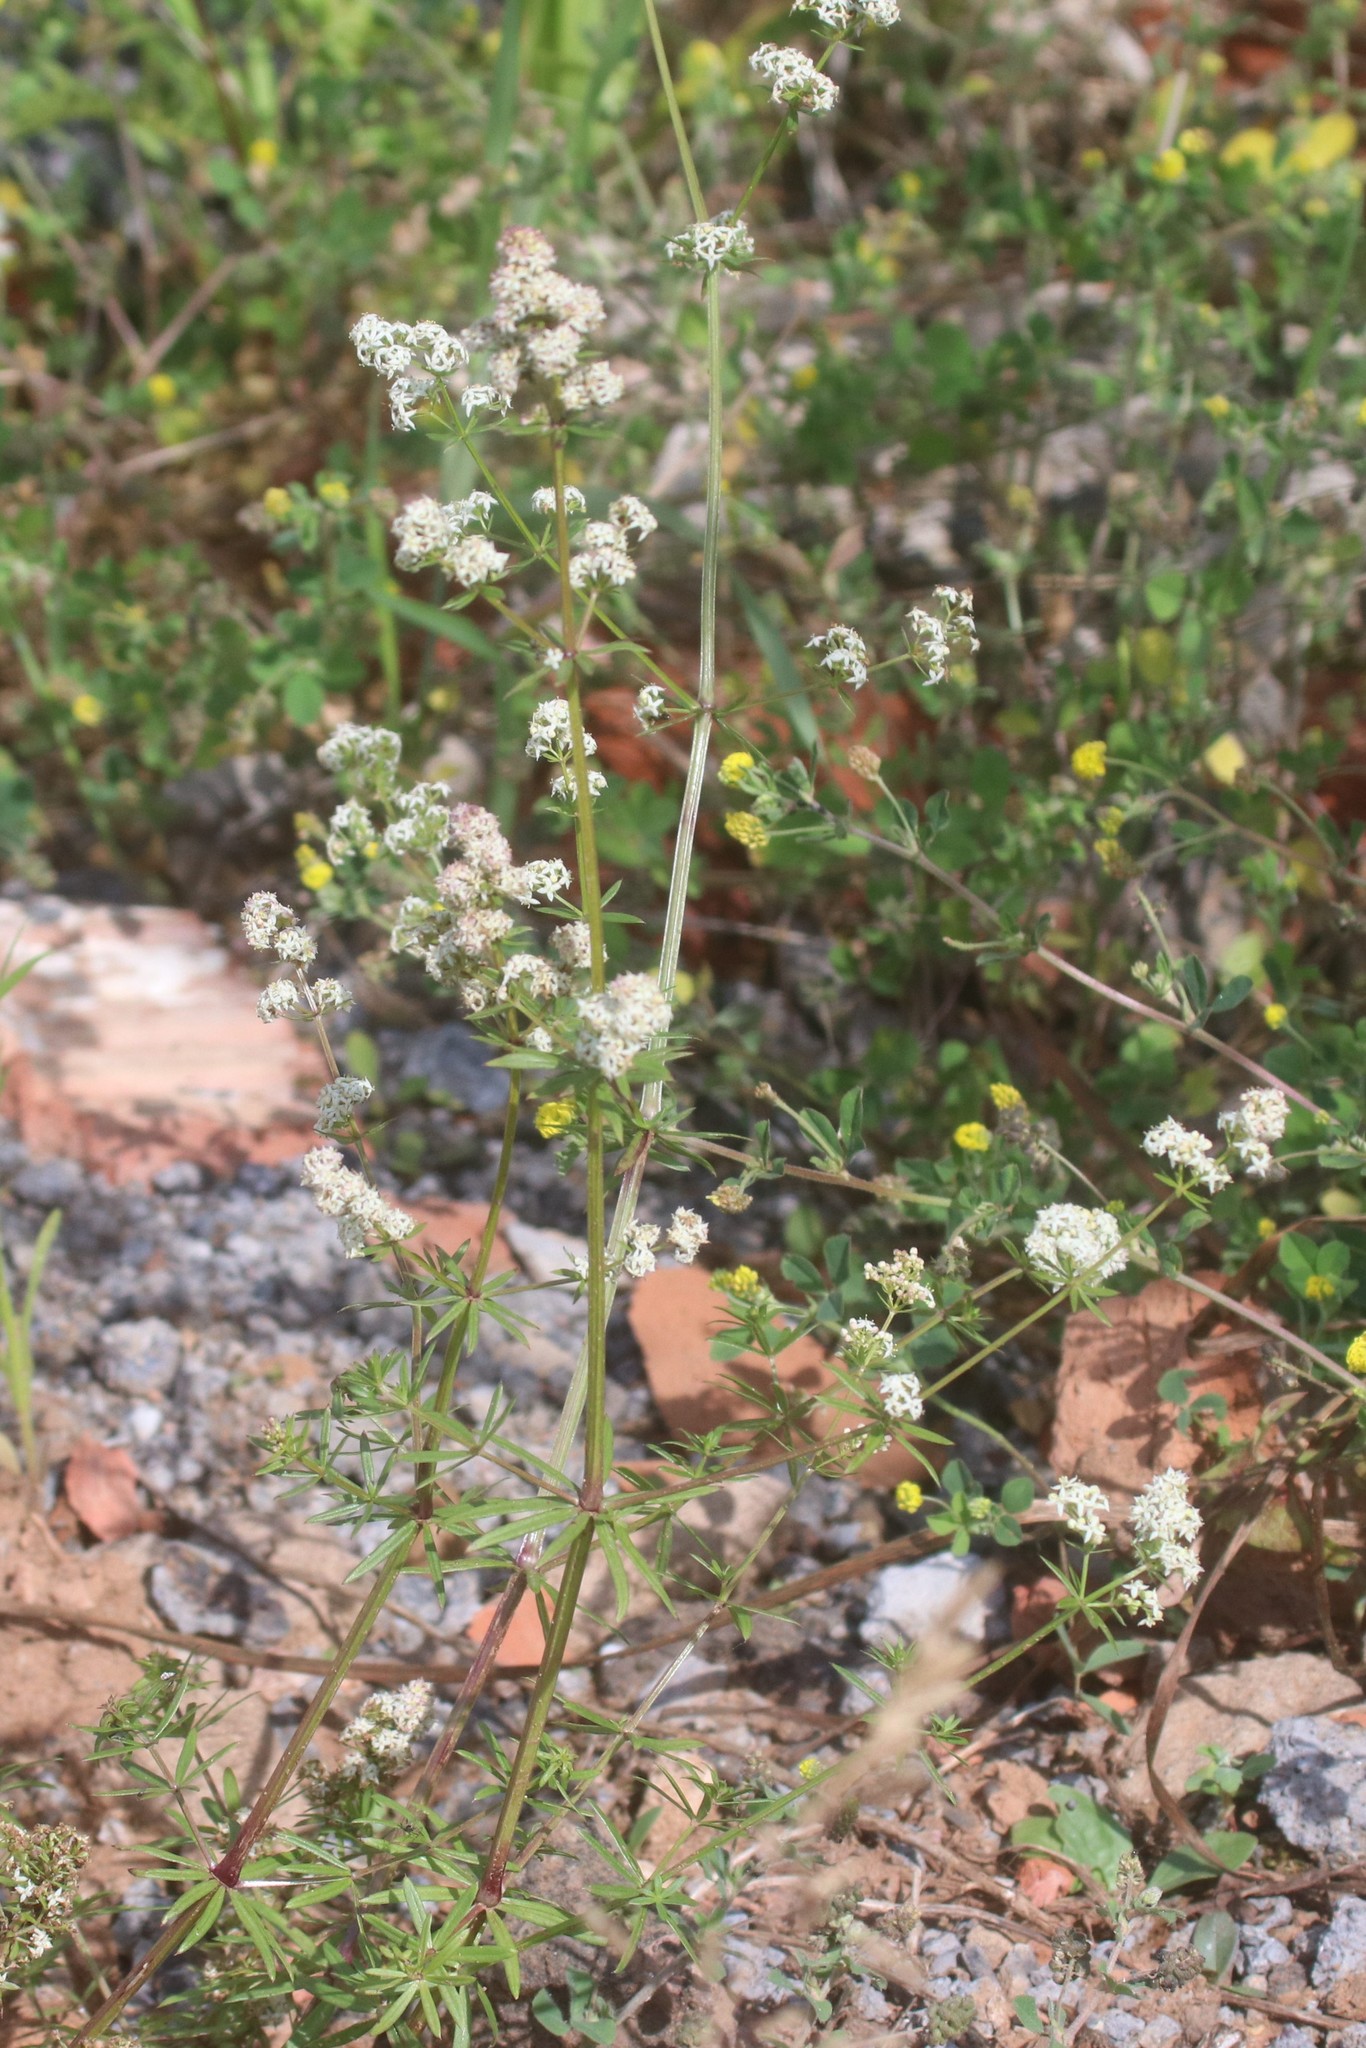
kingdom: Plantae
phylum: Tracheophyta
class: Magnoliopsida
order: Gentianales
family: Rubiaceae
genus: Galium
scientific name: Galium mollugo
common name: Hedge bedstraw
